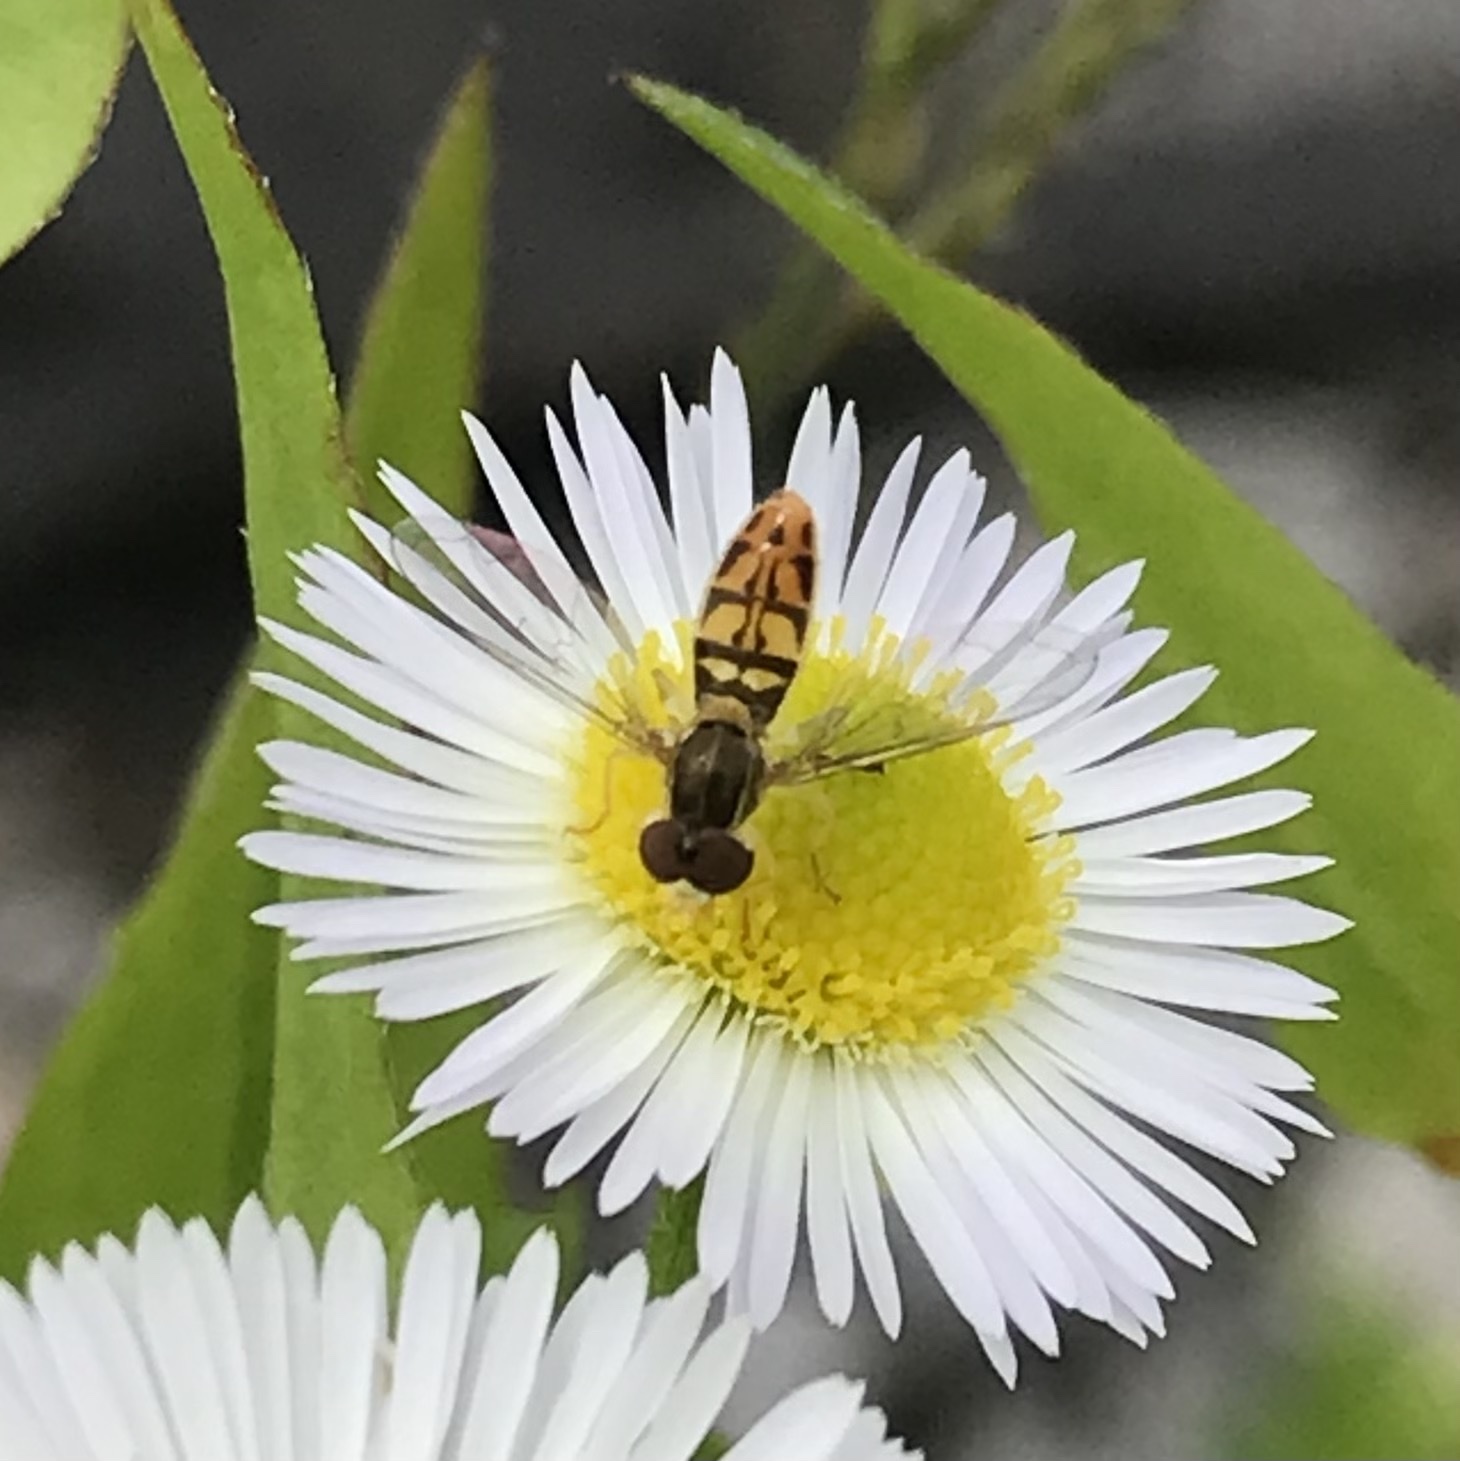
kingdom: Animalia
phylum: Arthropoda
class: Insecta
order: Diptera
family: Syrphidae
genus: Toxomerus
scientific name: Toxomerus marginatus
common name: Syrphid fly
